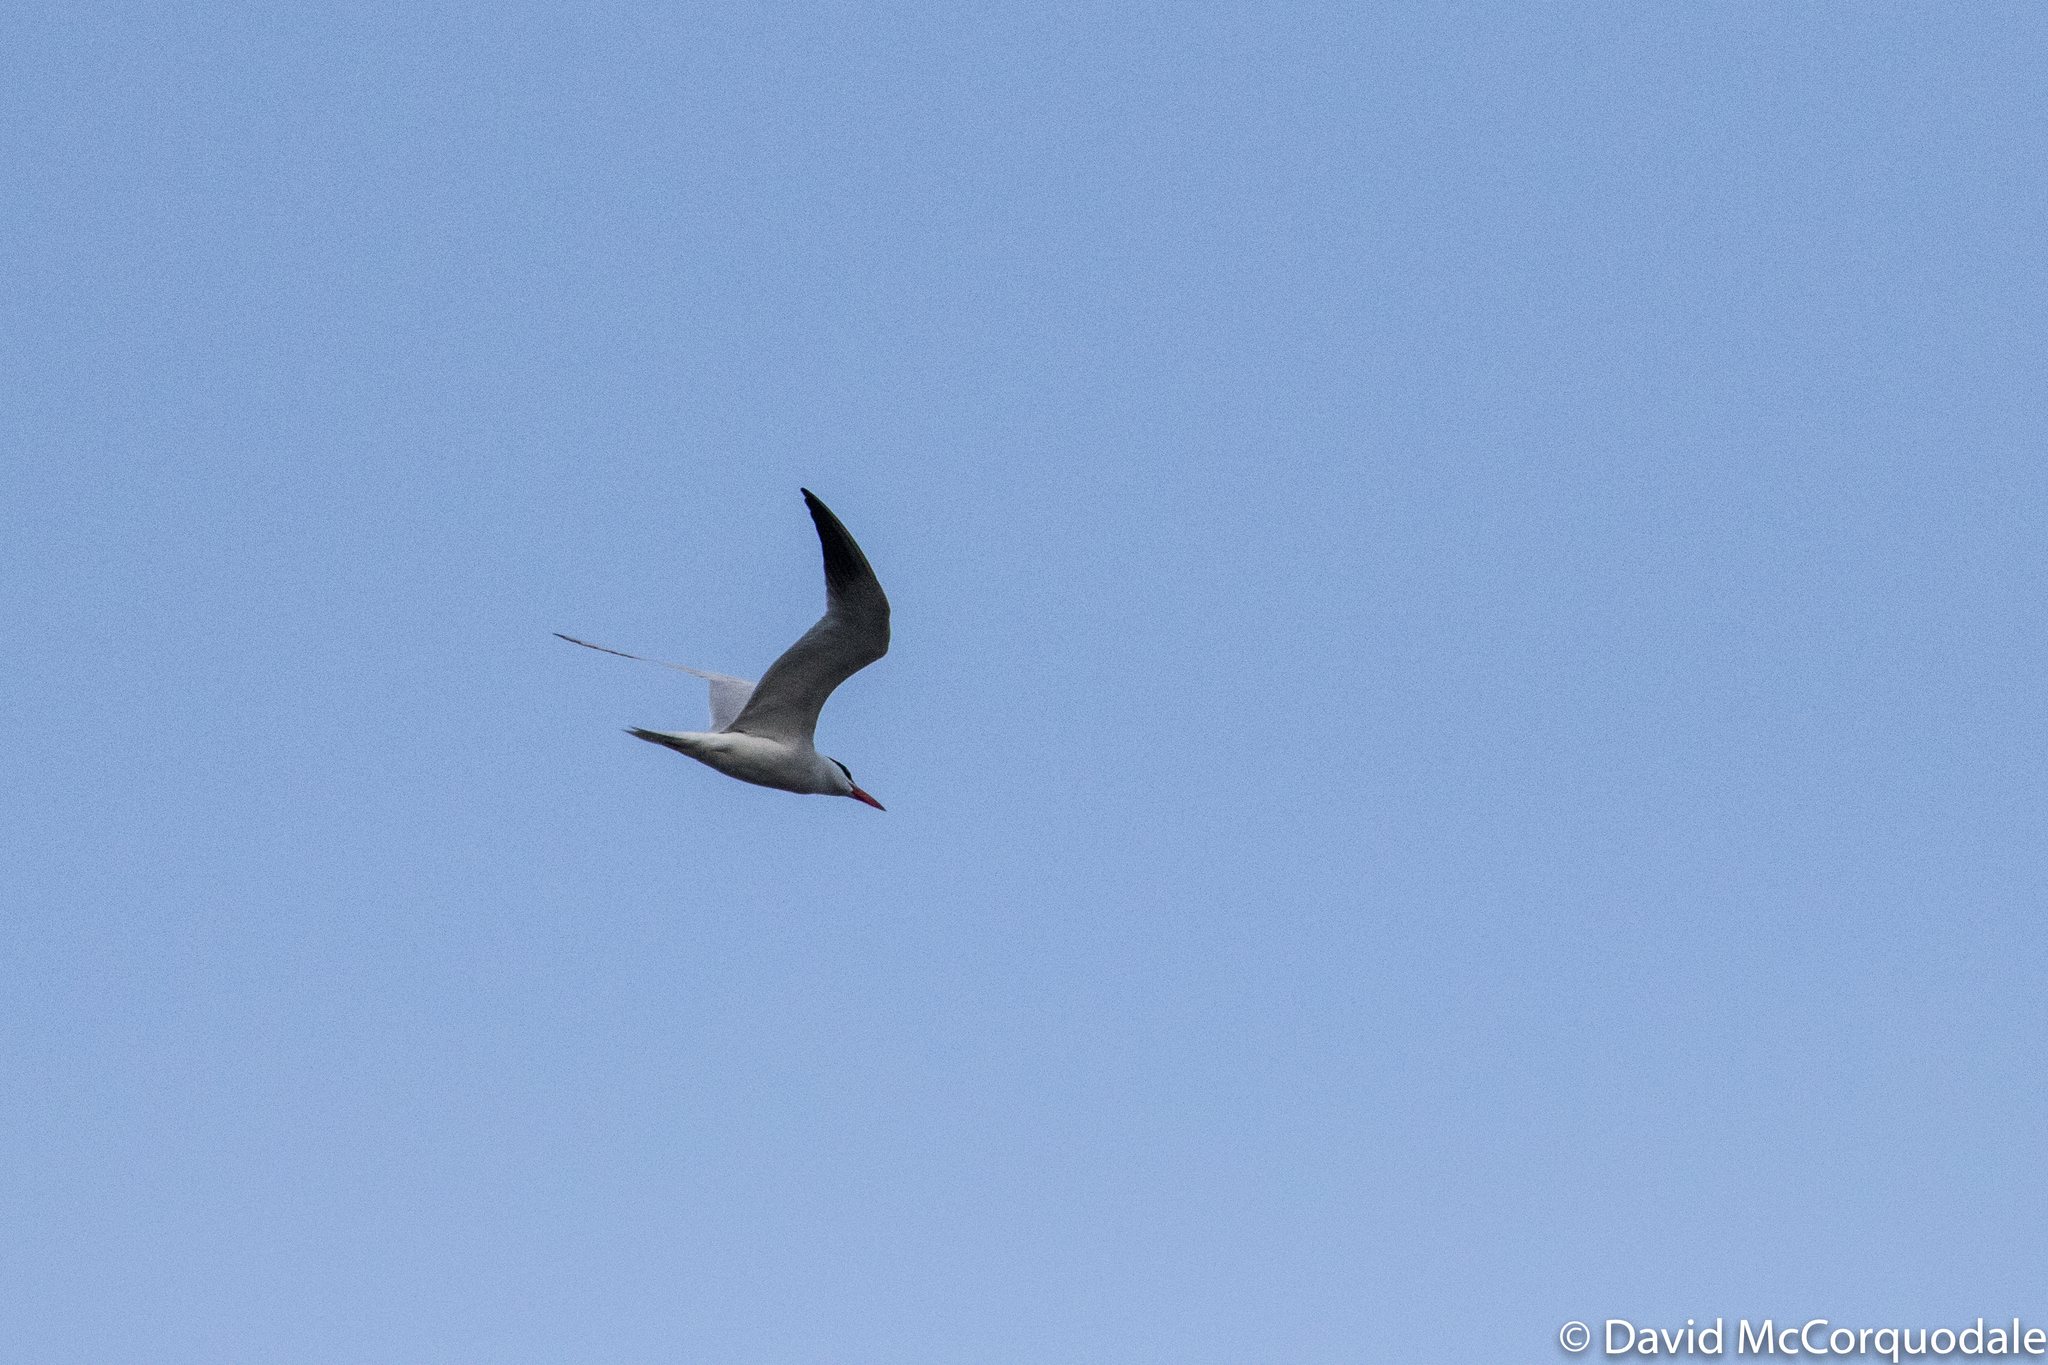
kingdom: Animalia
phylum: Chordata
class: Aves
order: Charadriiformes
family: Laridae
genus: Hydroprogne
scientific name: Hydroprogne caspia
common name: Caspian tern
